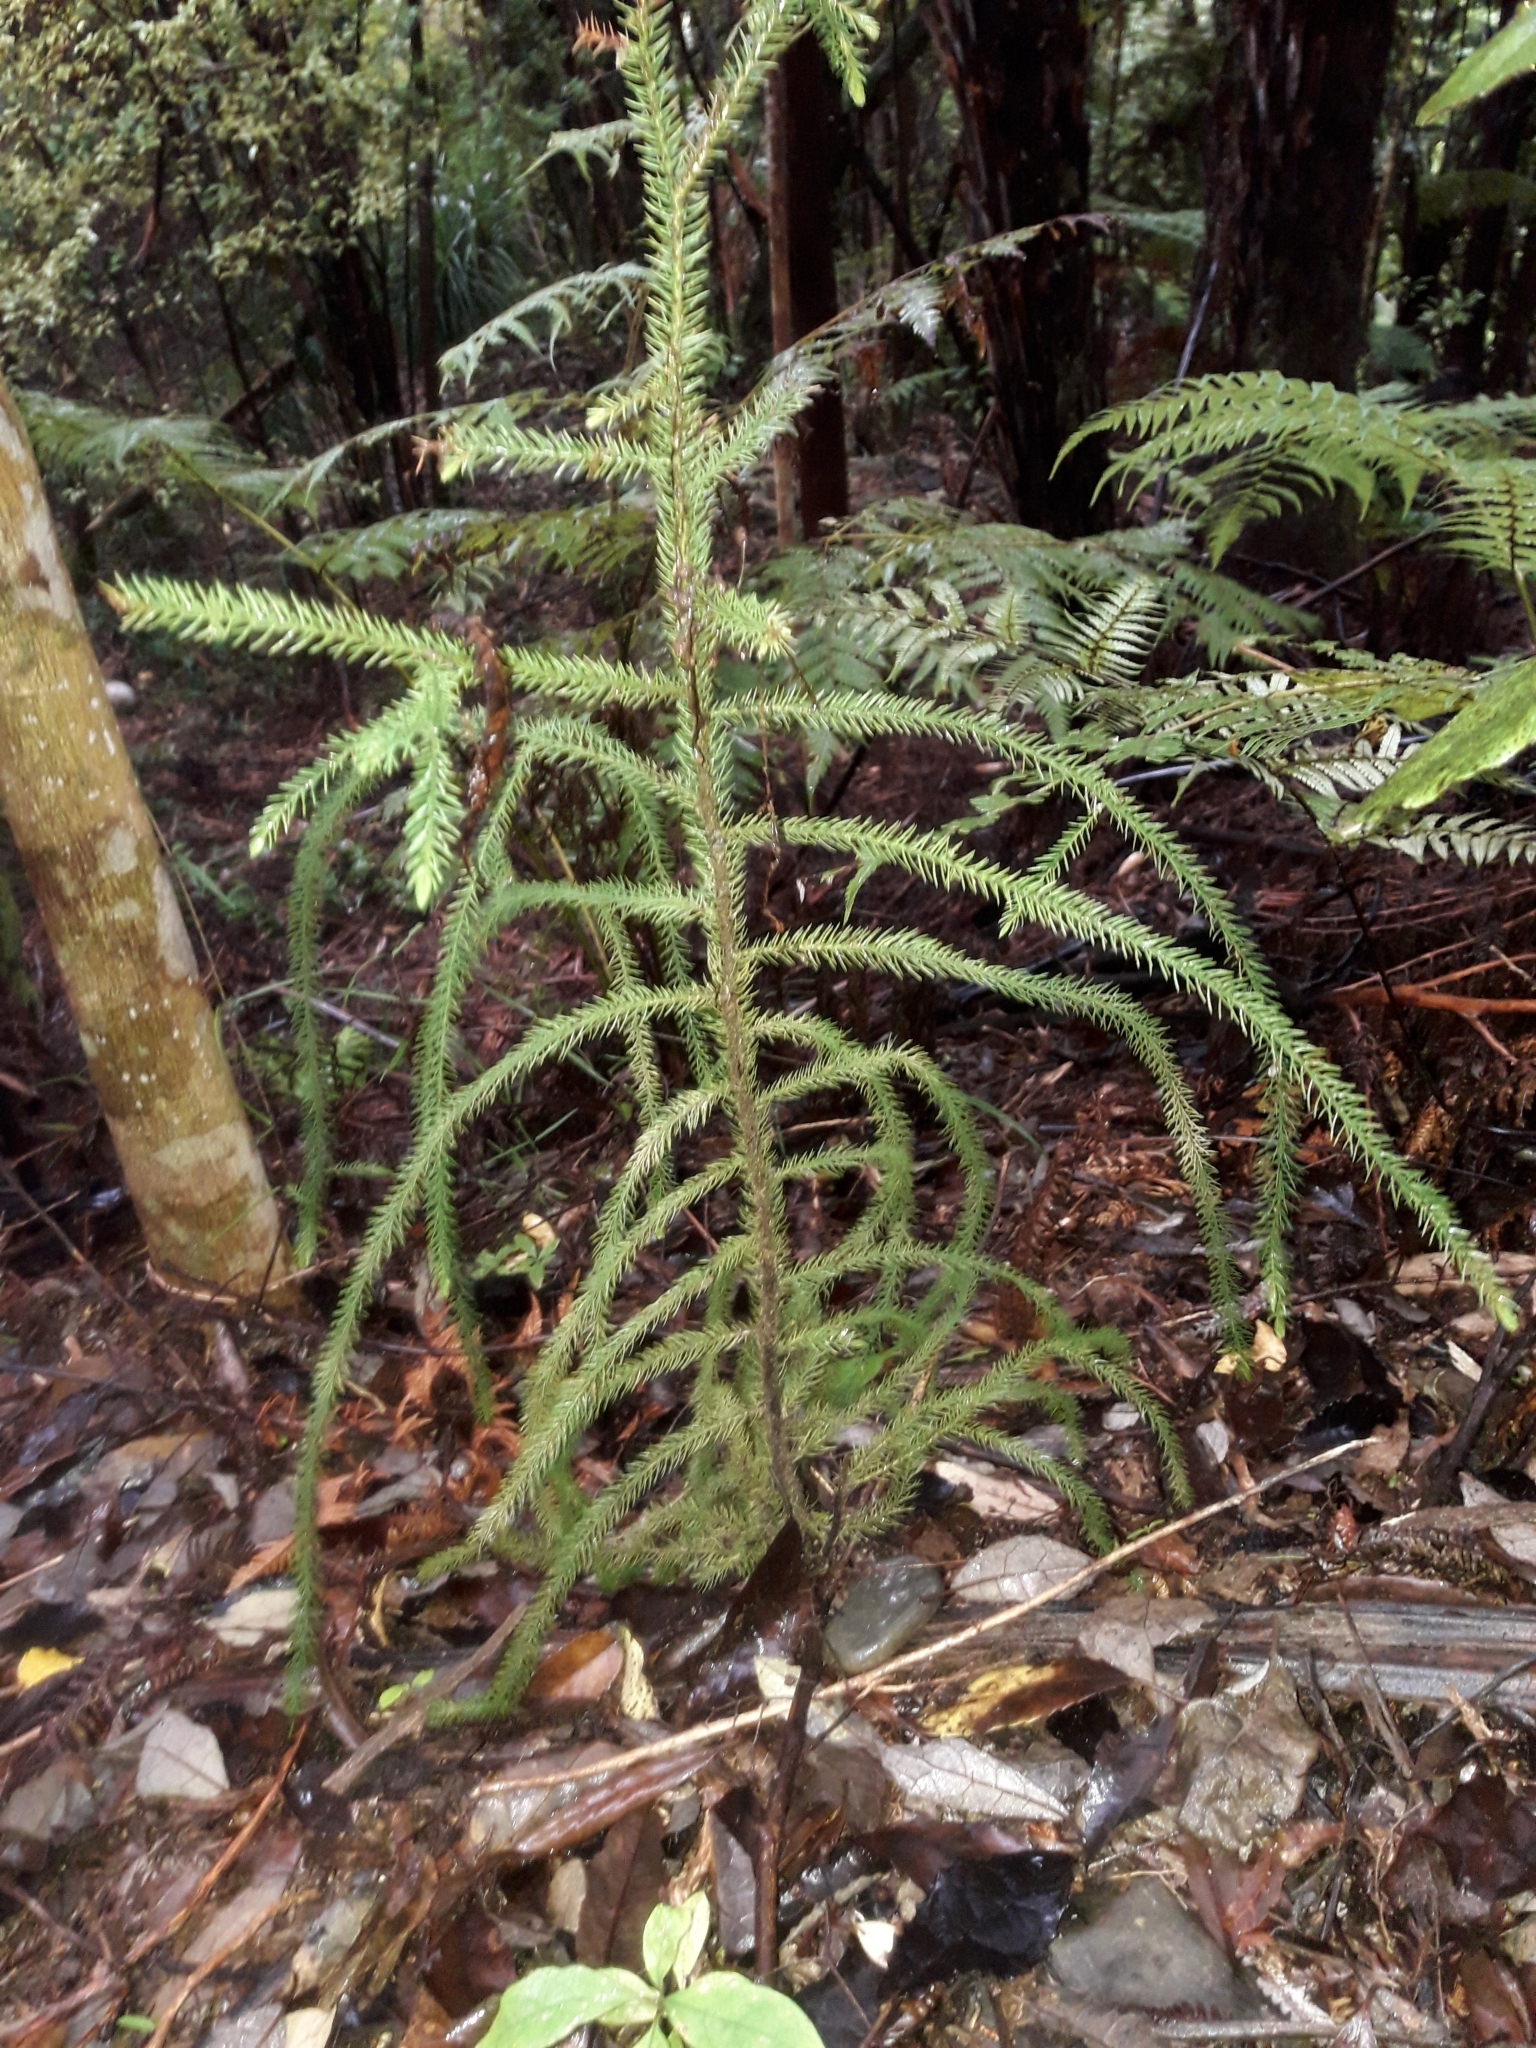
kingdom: Plantae
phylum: Tracheophyta
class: Pinopsida
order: Pinales
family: Podocarpaceae
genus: Dacrydium
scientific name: Dacrydium cupressinum
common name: Red pine
